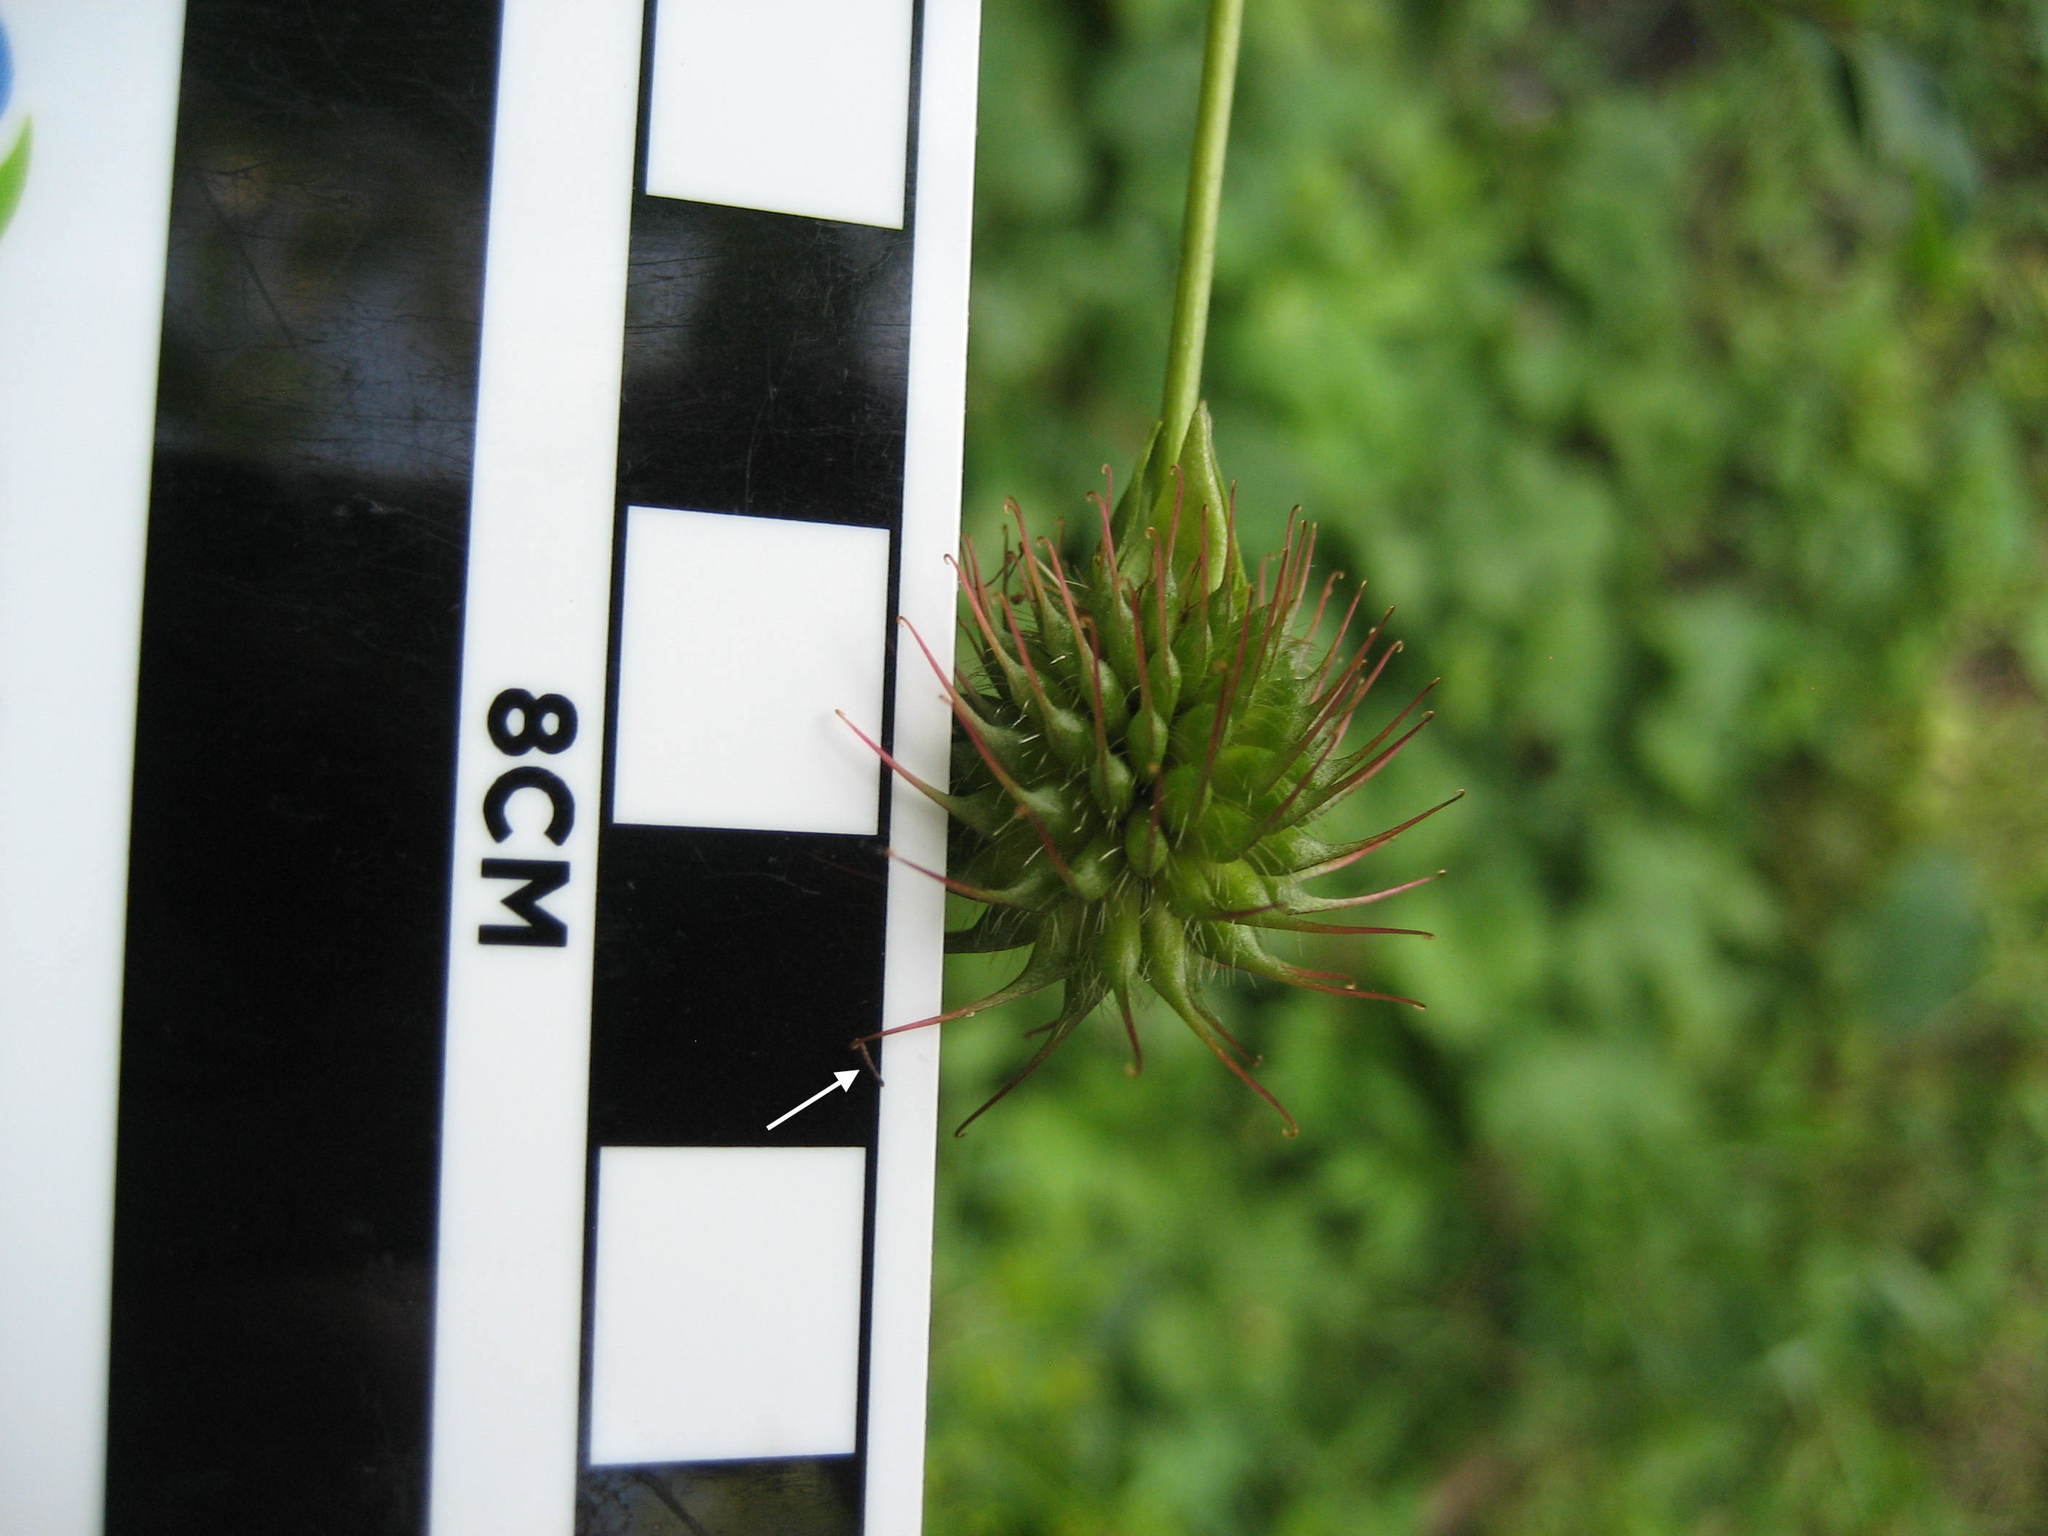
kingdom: Plantae
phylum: Tracheophyta
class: Magnoliopsida
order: Rosales
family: Rosaceae
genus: Geum
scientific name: Geum urbanum
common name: Wood avens
